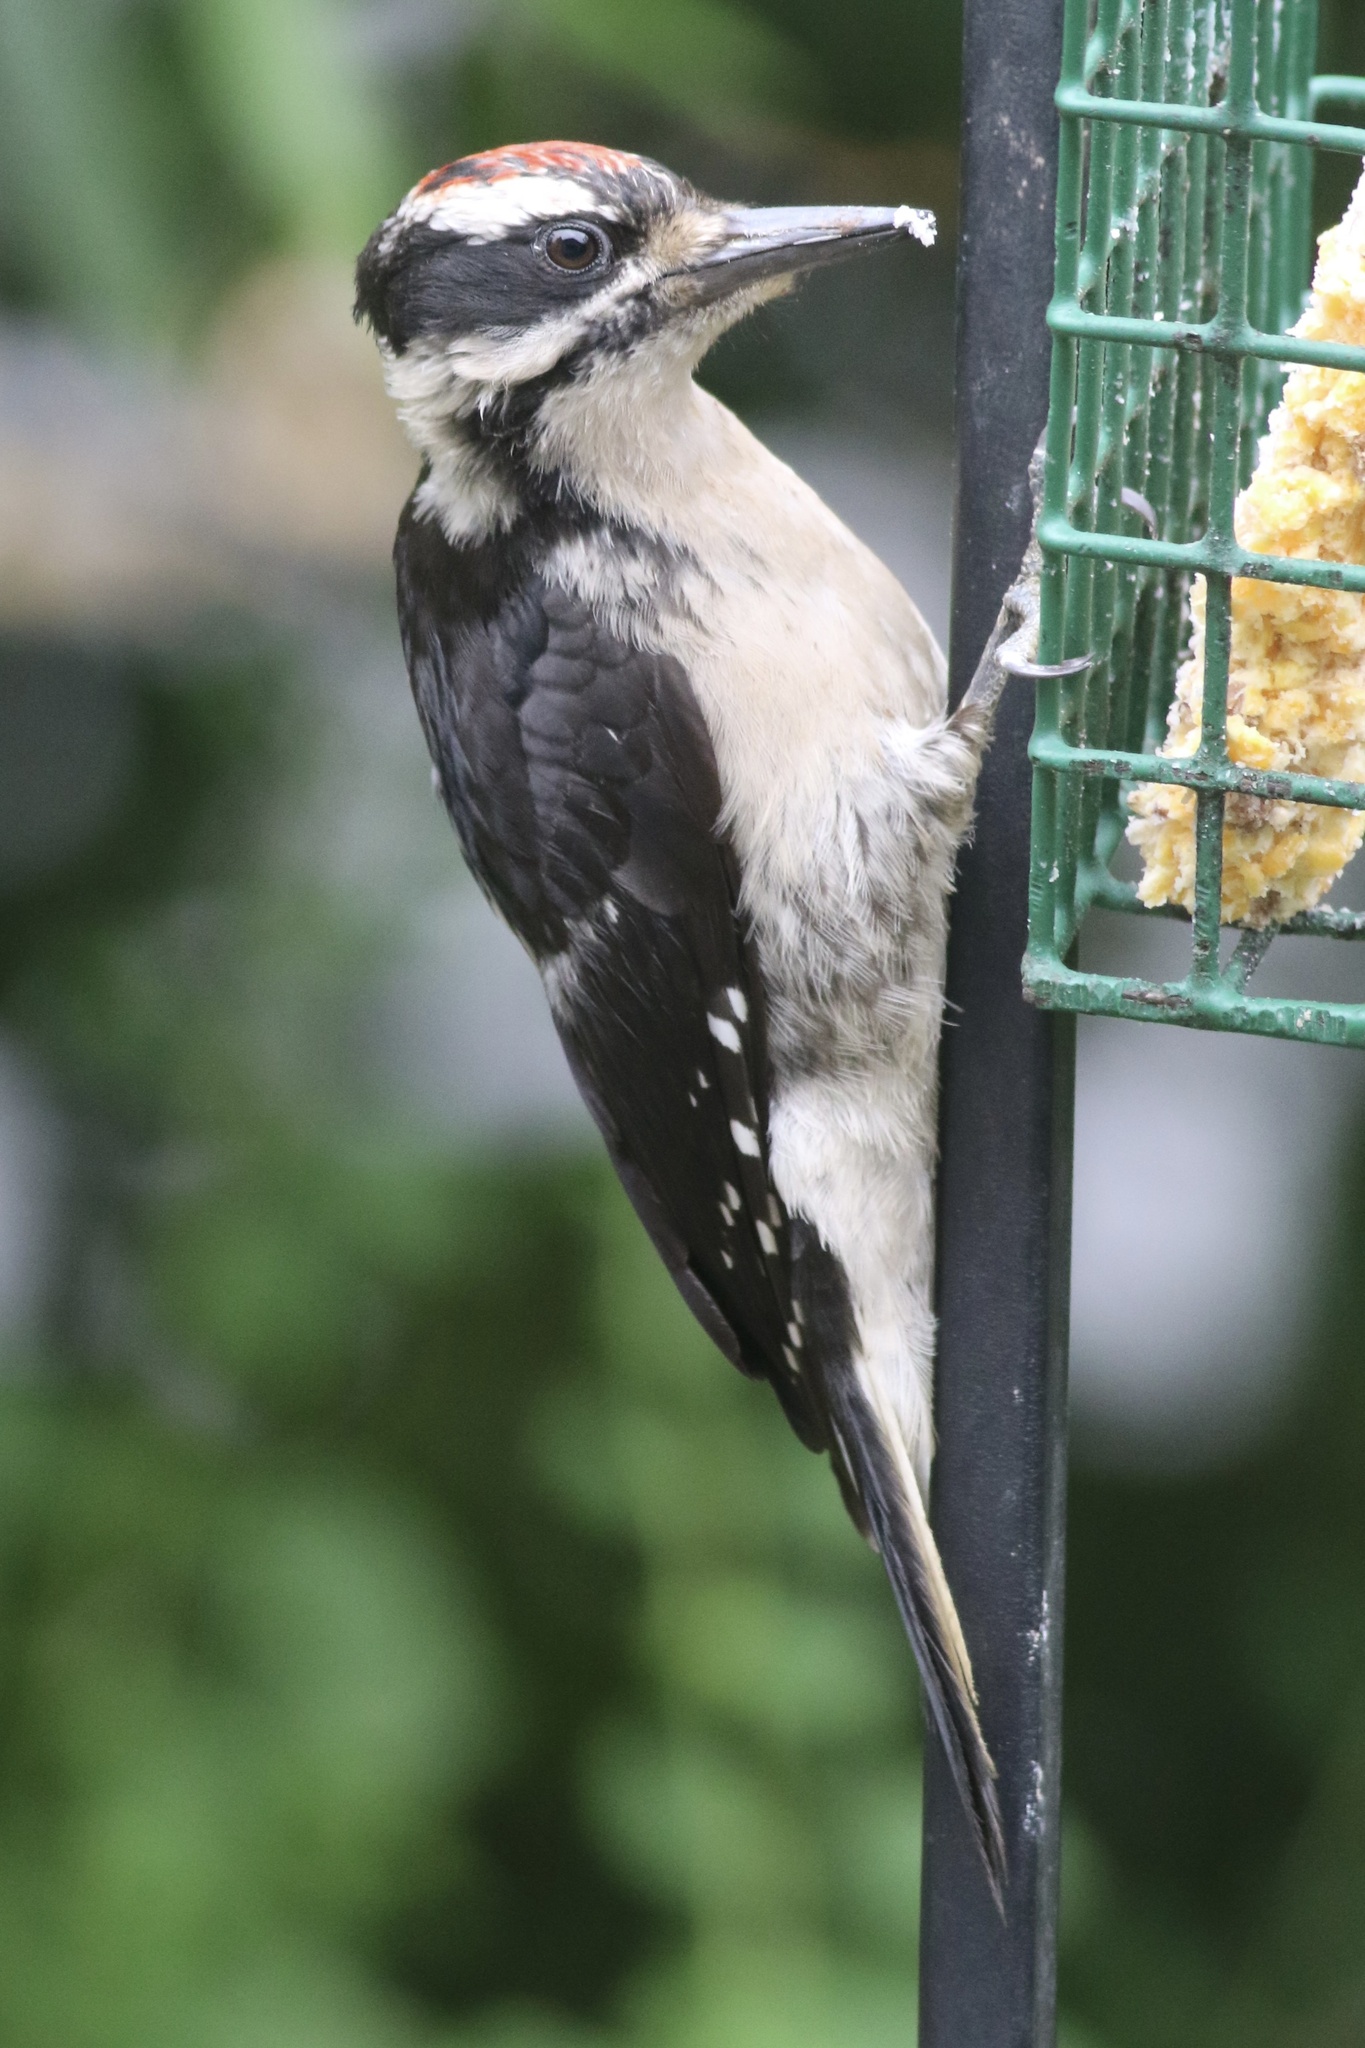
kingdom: Animalia
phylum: Chordata
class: Aves
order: Piciformes
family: Picidae
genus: Leuconotopicus
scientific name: Leuconotopicus villosus
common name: Hairy woodpecker
